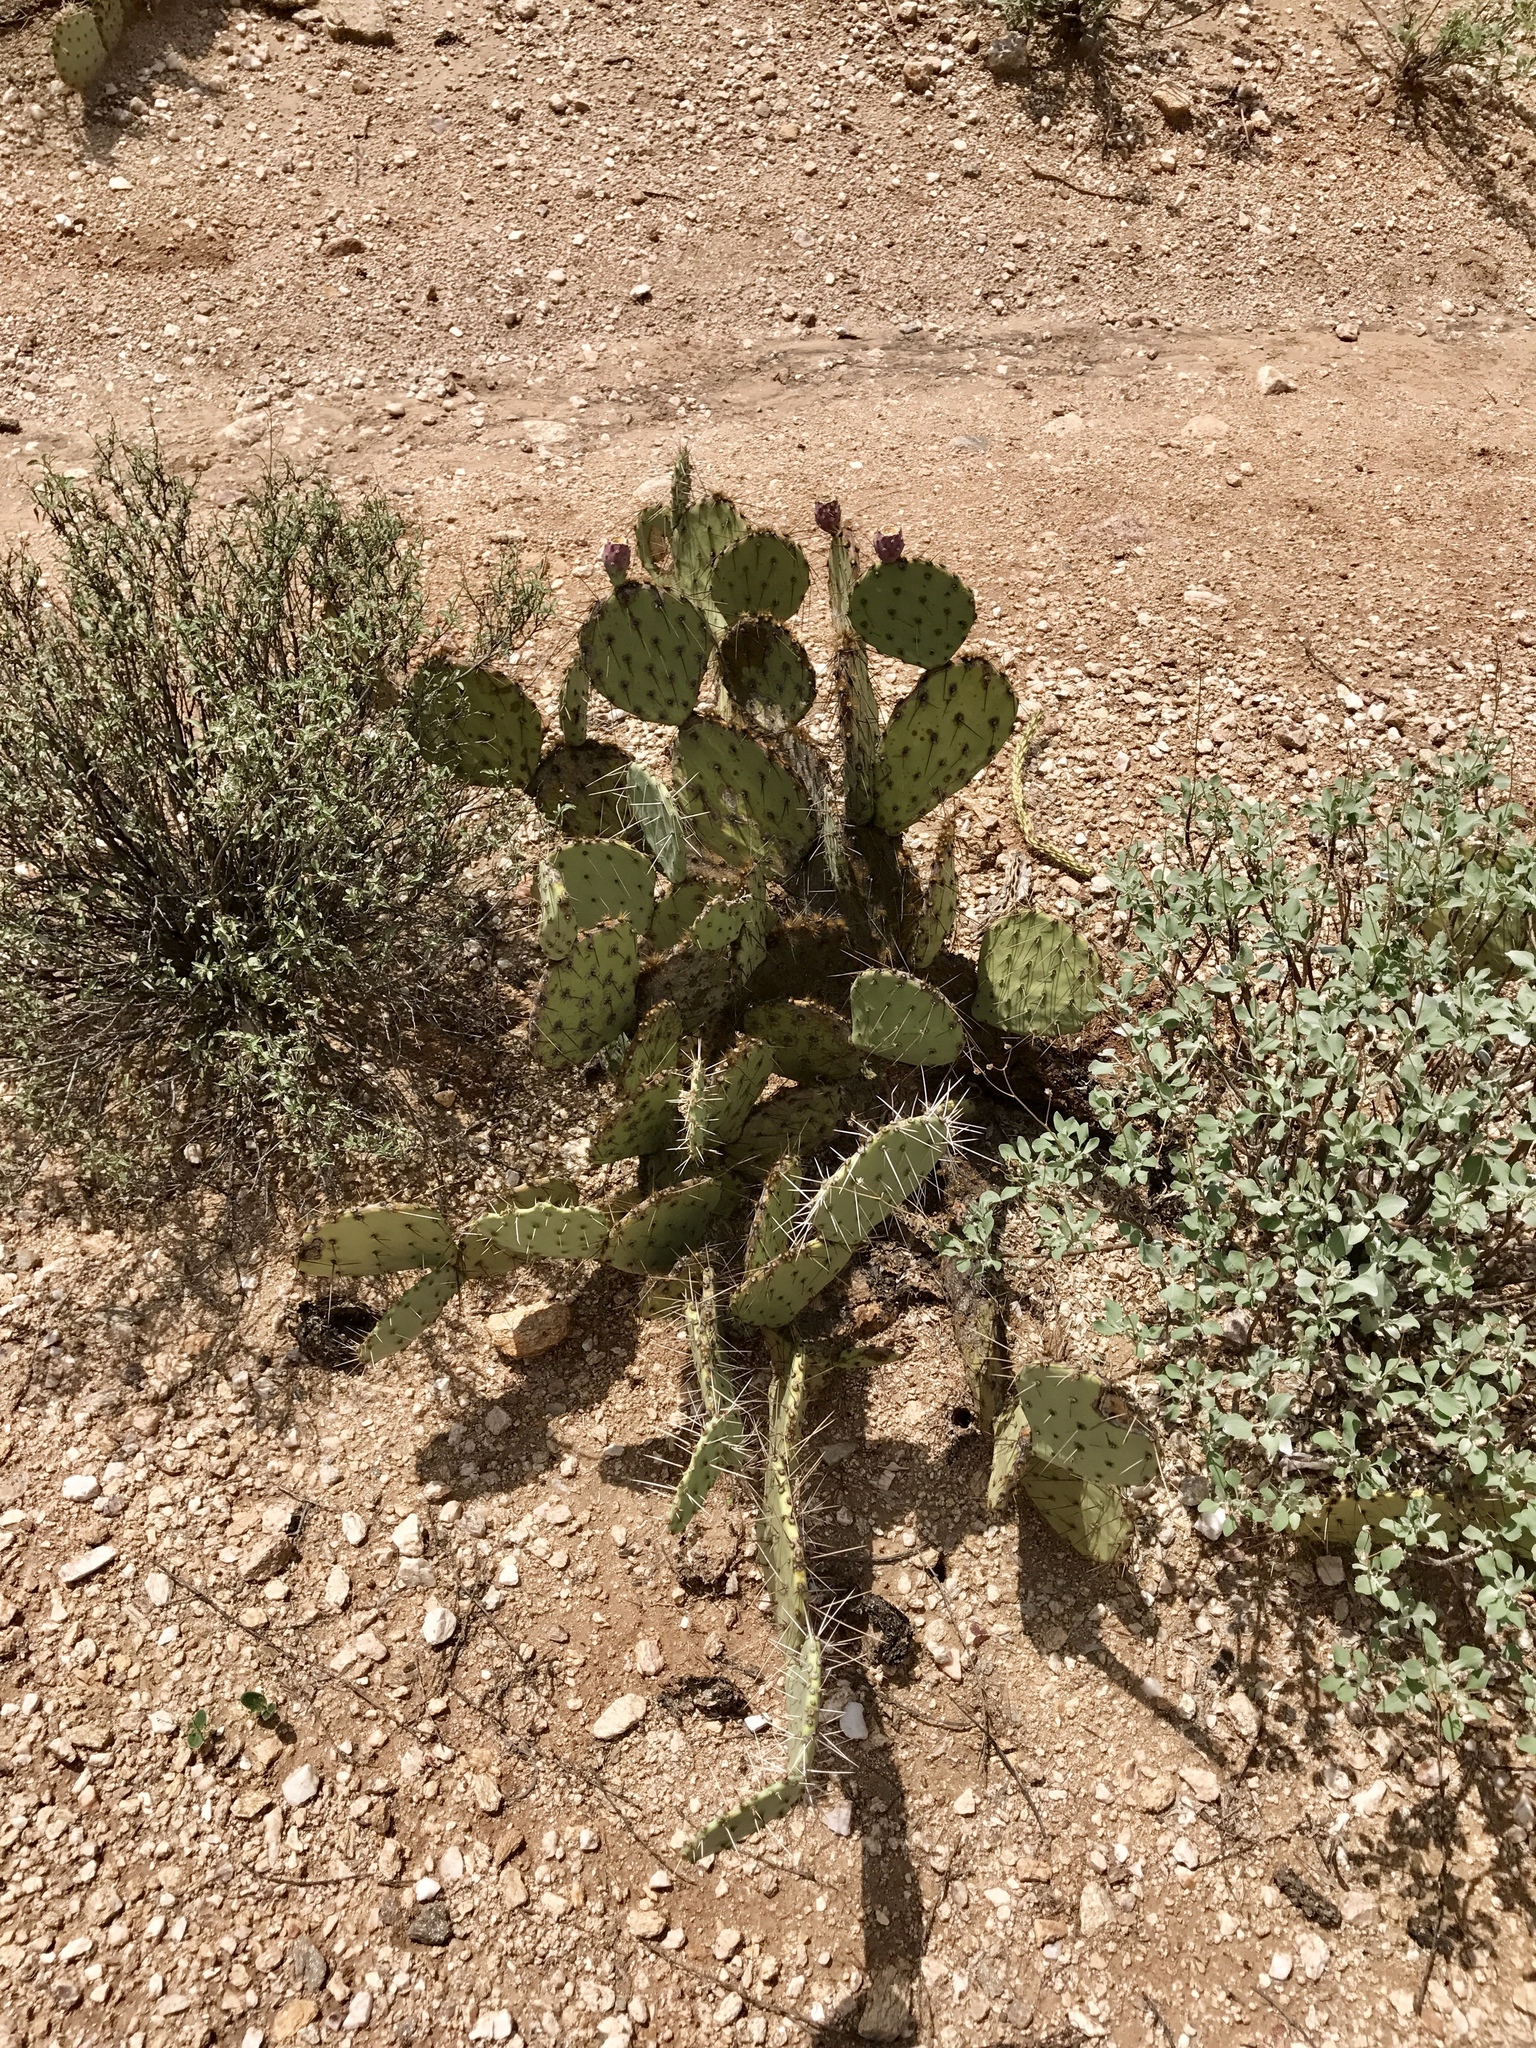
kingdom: Plantae
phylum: Tracheophyta
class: Magnoliopsida
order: Caryophyllales
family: Cactaceae
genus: Opuntia
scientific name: Opuntia phaeacantha
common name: New mexico prickly-pear
